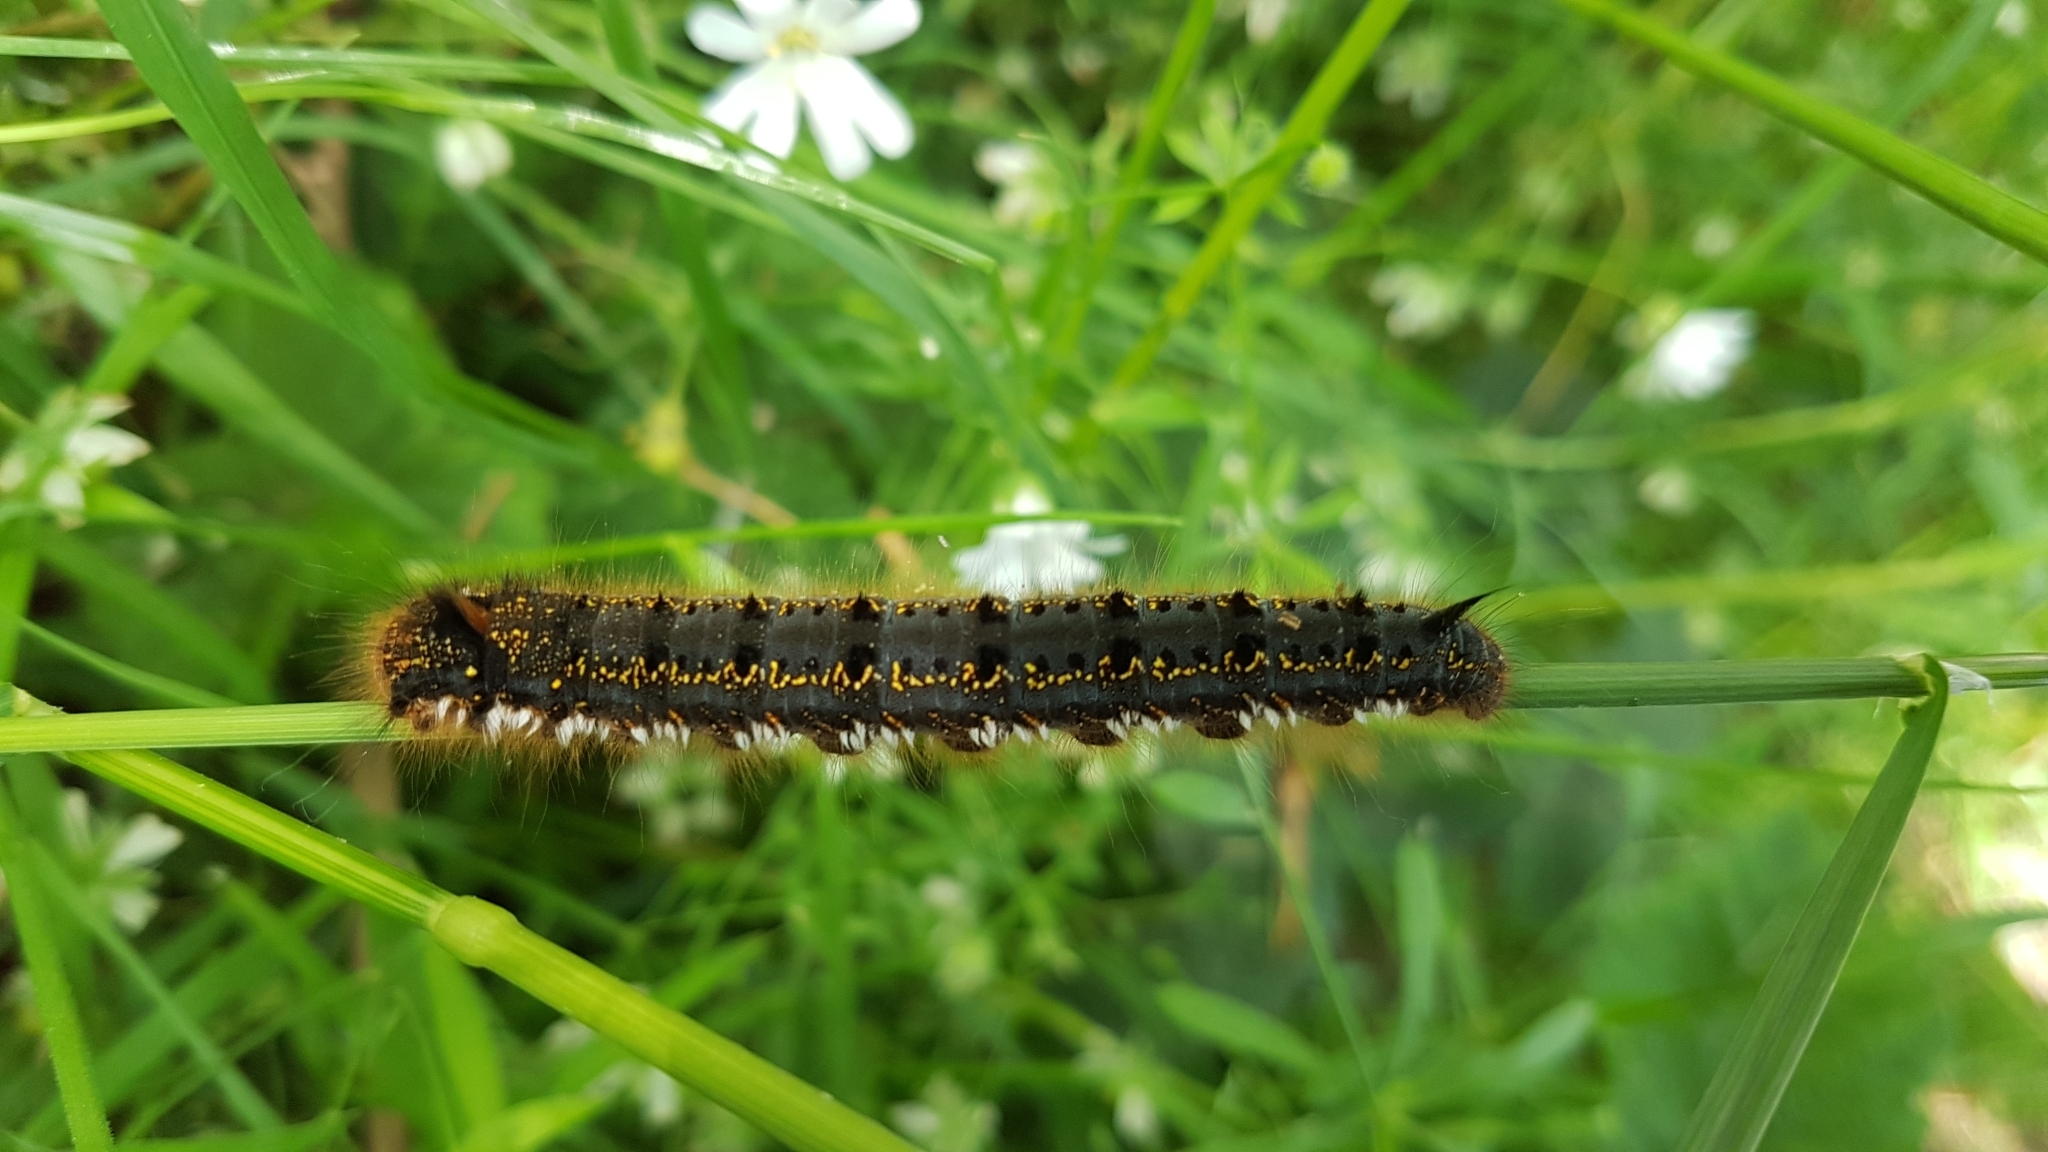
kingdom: Animalia
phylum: Arthropoda
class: Insecta
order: Lepidoptera
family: Lasiocampidae
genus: Euthrix
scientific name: Euthrix potatoria
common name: Drinker
